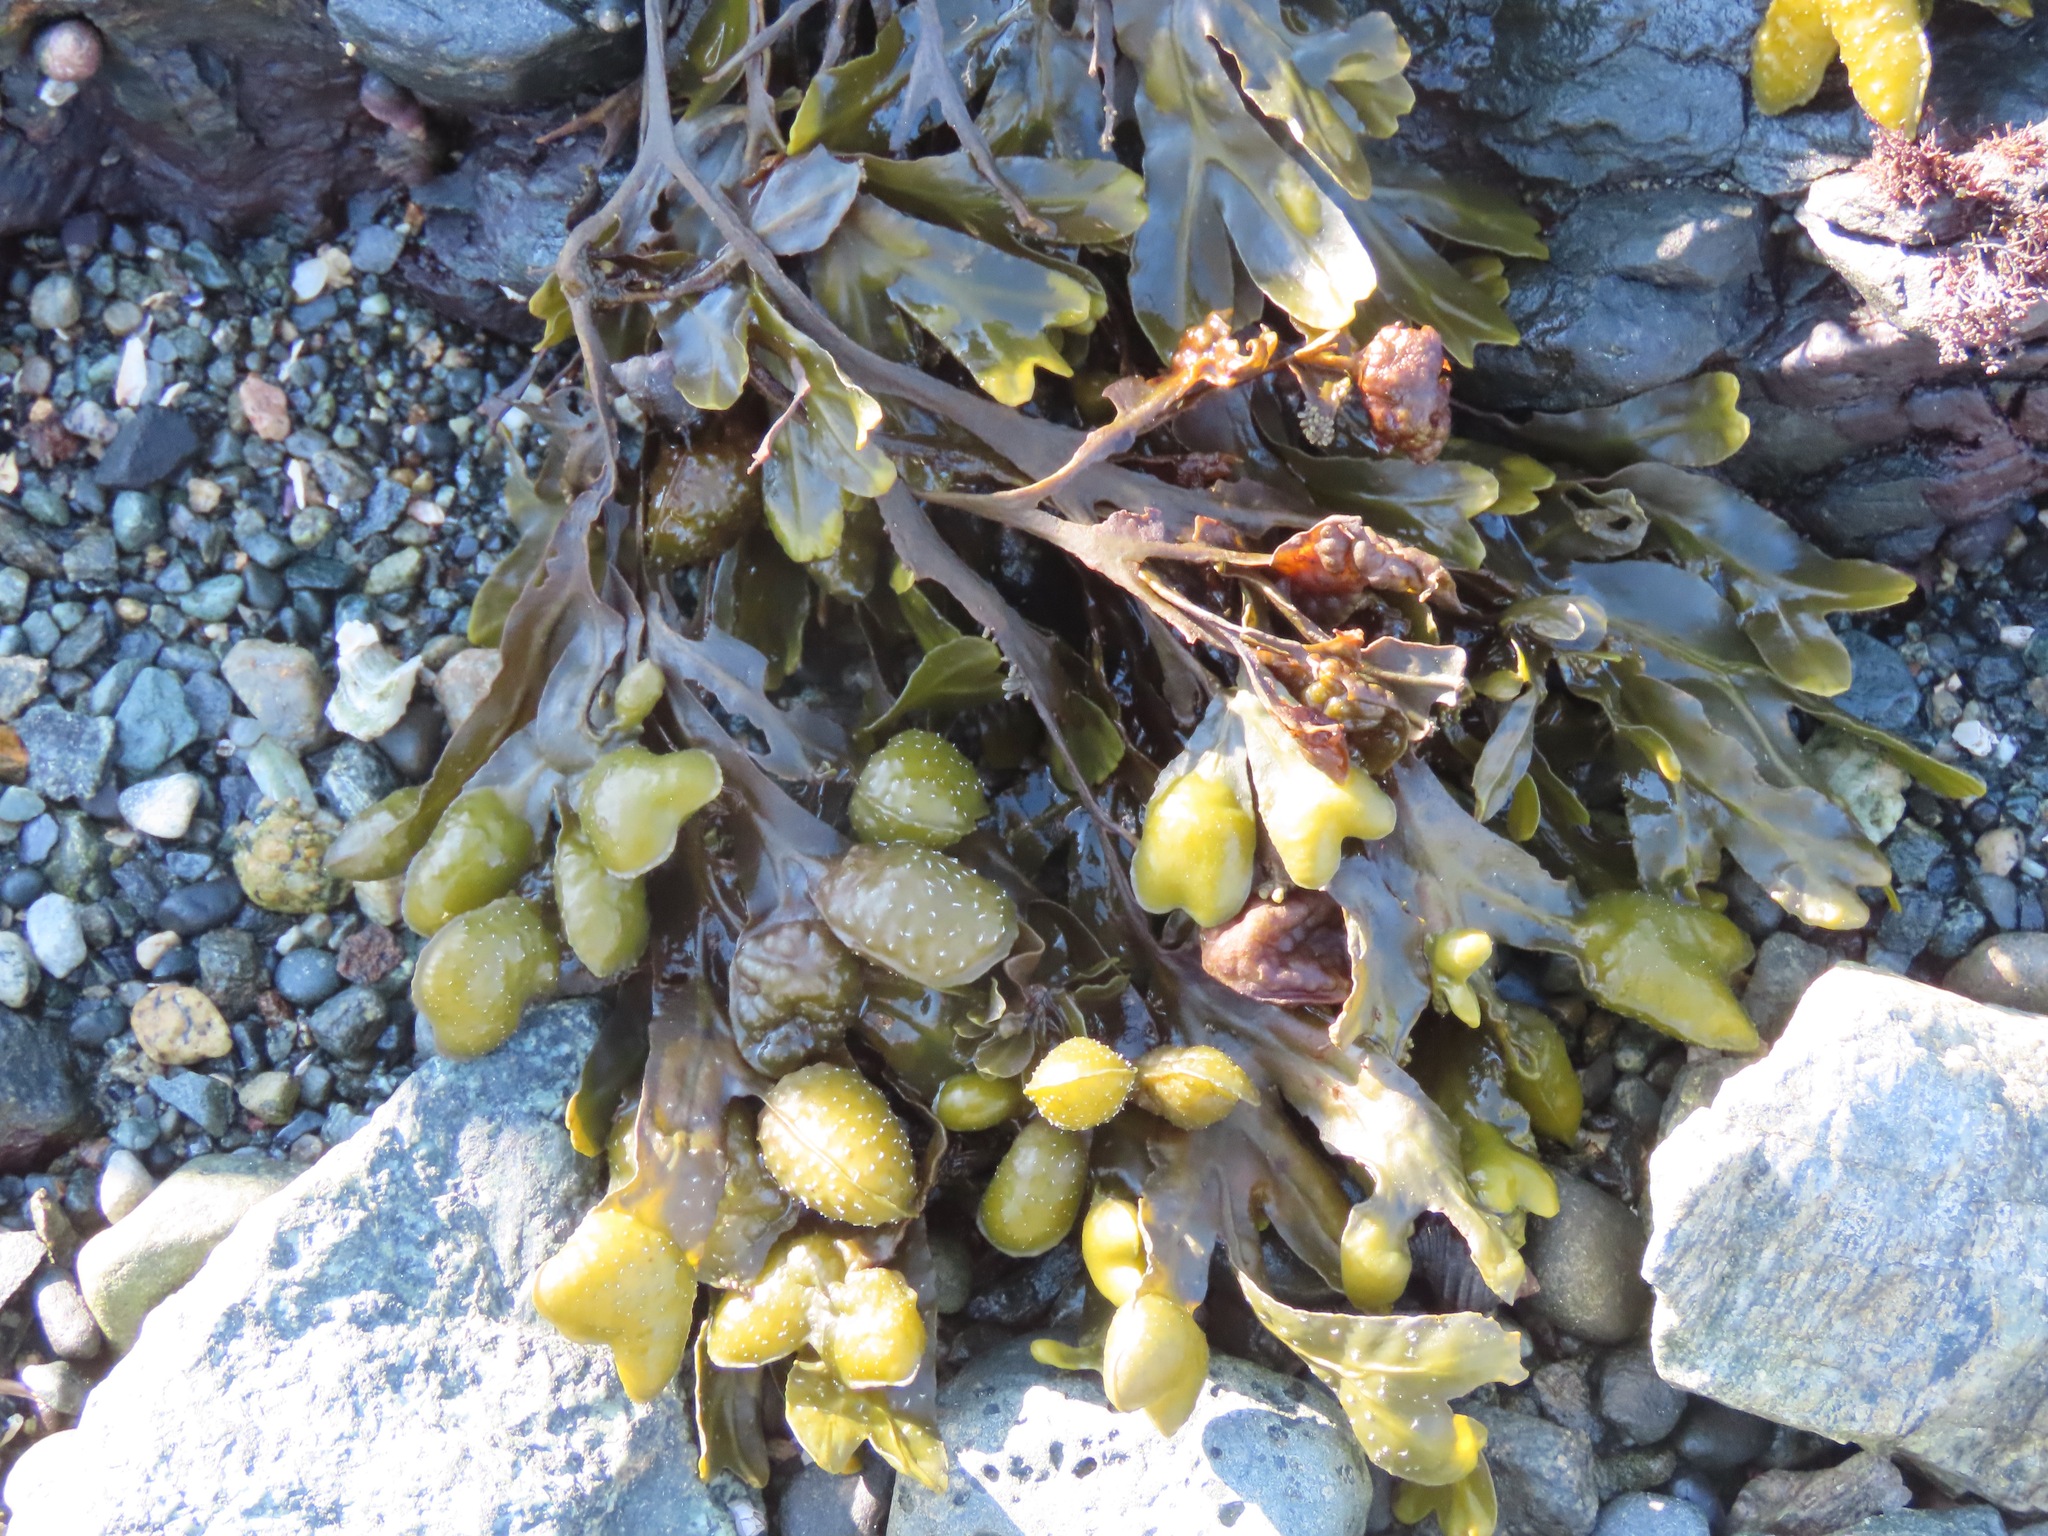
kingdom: Chromista
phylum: Ochrophyta
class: Phaeophyceae
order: Fucales
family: Fucaceae
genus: Fucus
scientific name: Fucus distichus
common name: Rockweed
